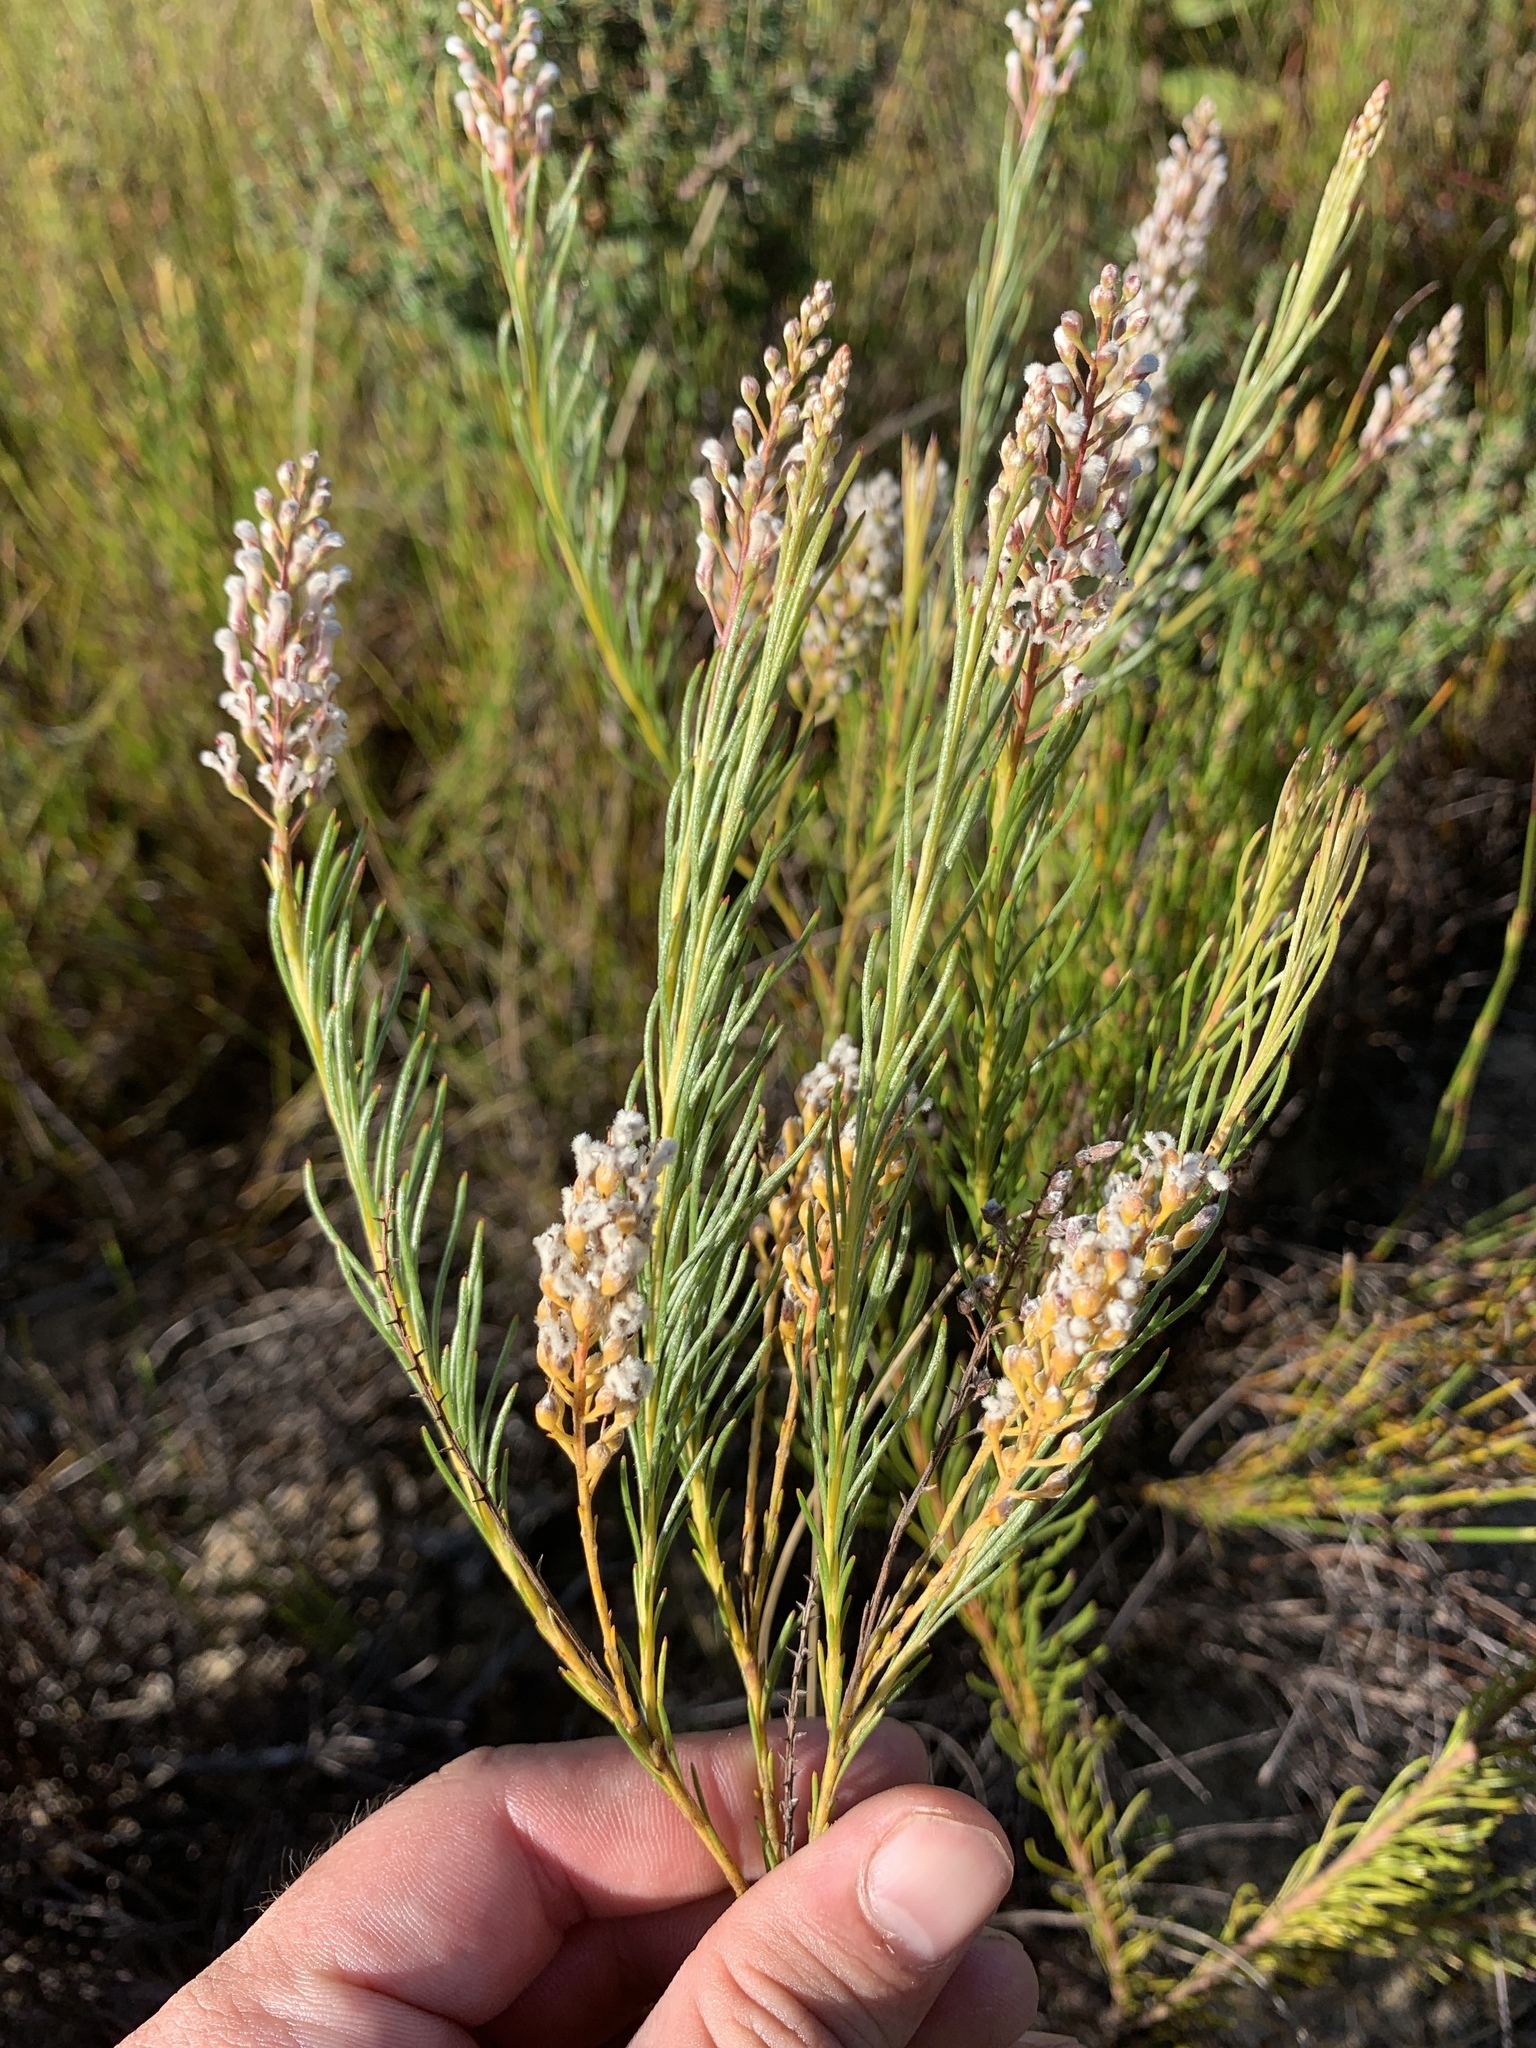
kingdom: Plantae
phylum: Tracheophyta
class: Magnoliopsida
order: Proteales
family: Proteaceae
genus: Spatalla
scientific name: Spatalla racemosa
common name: Lax-stalked spoon
